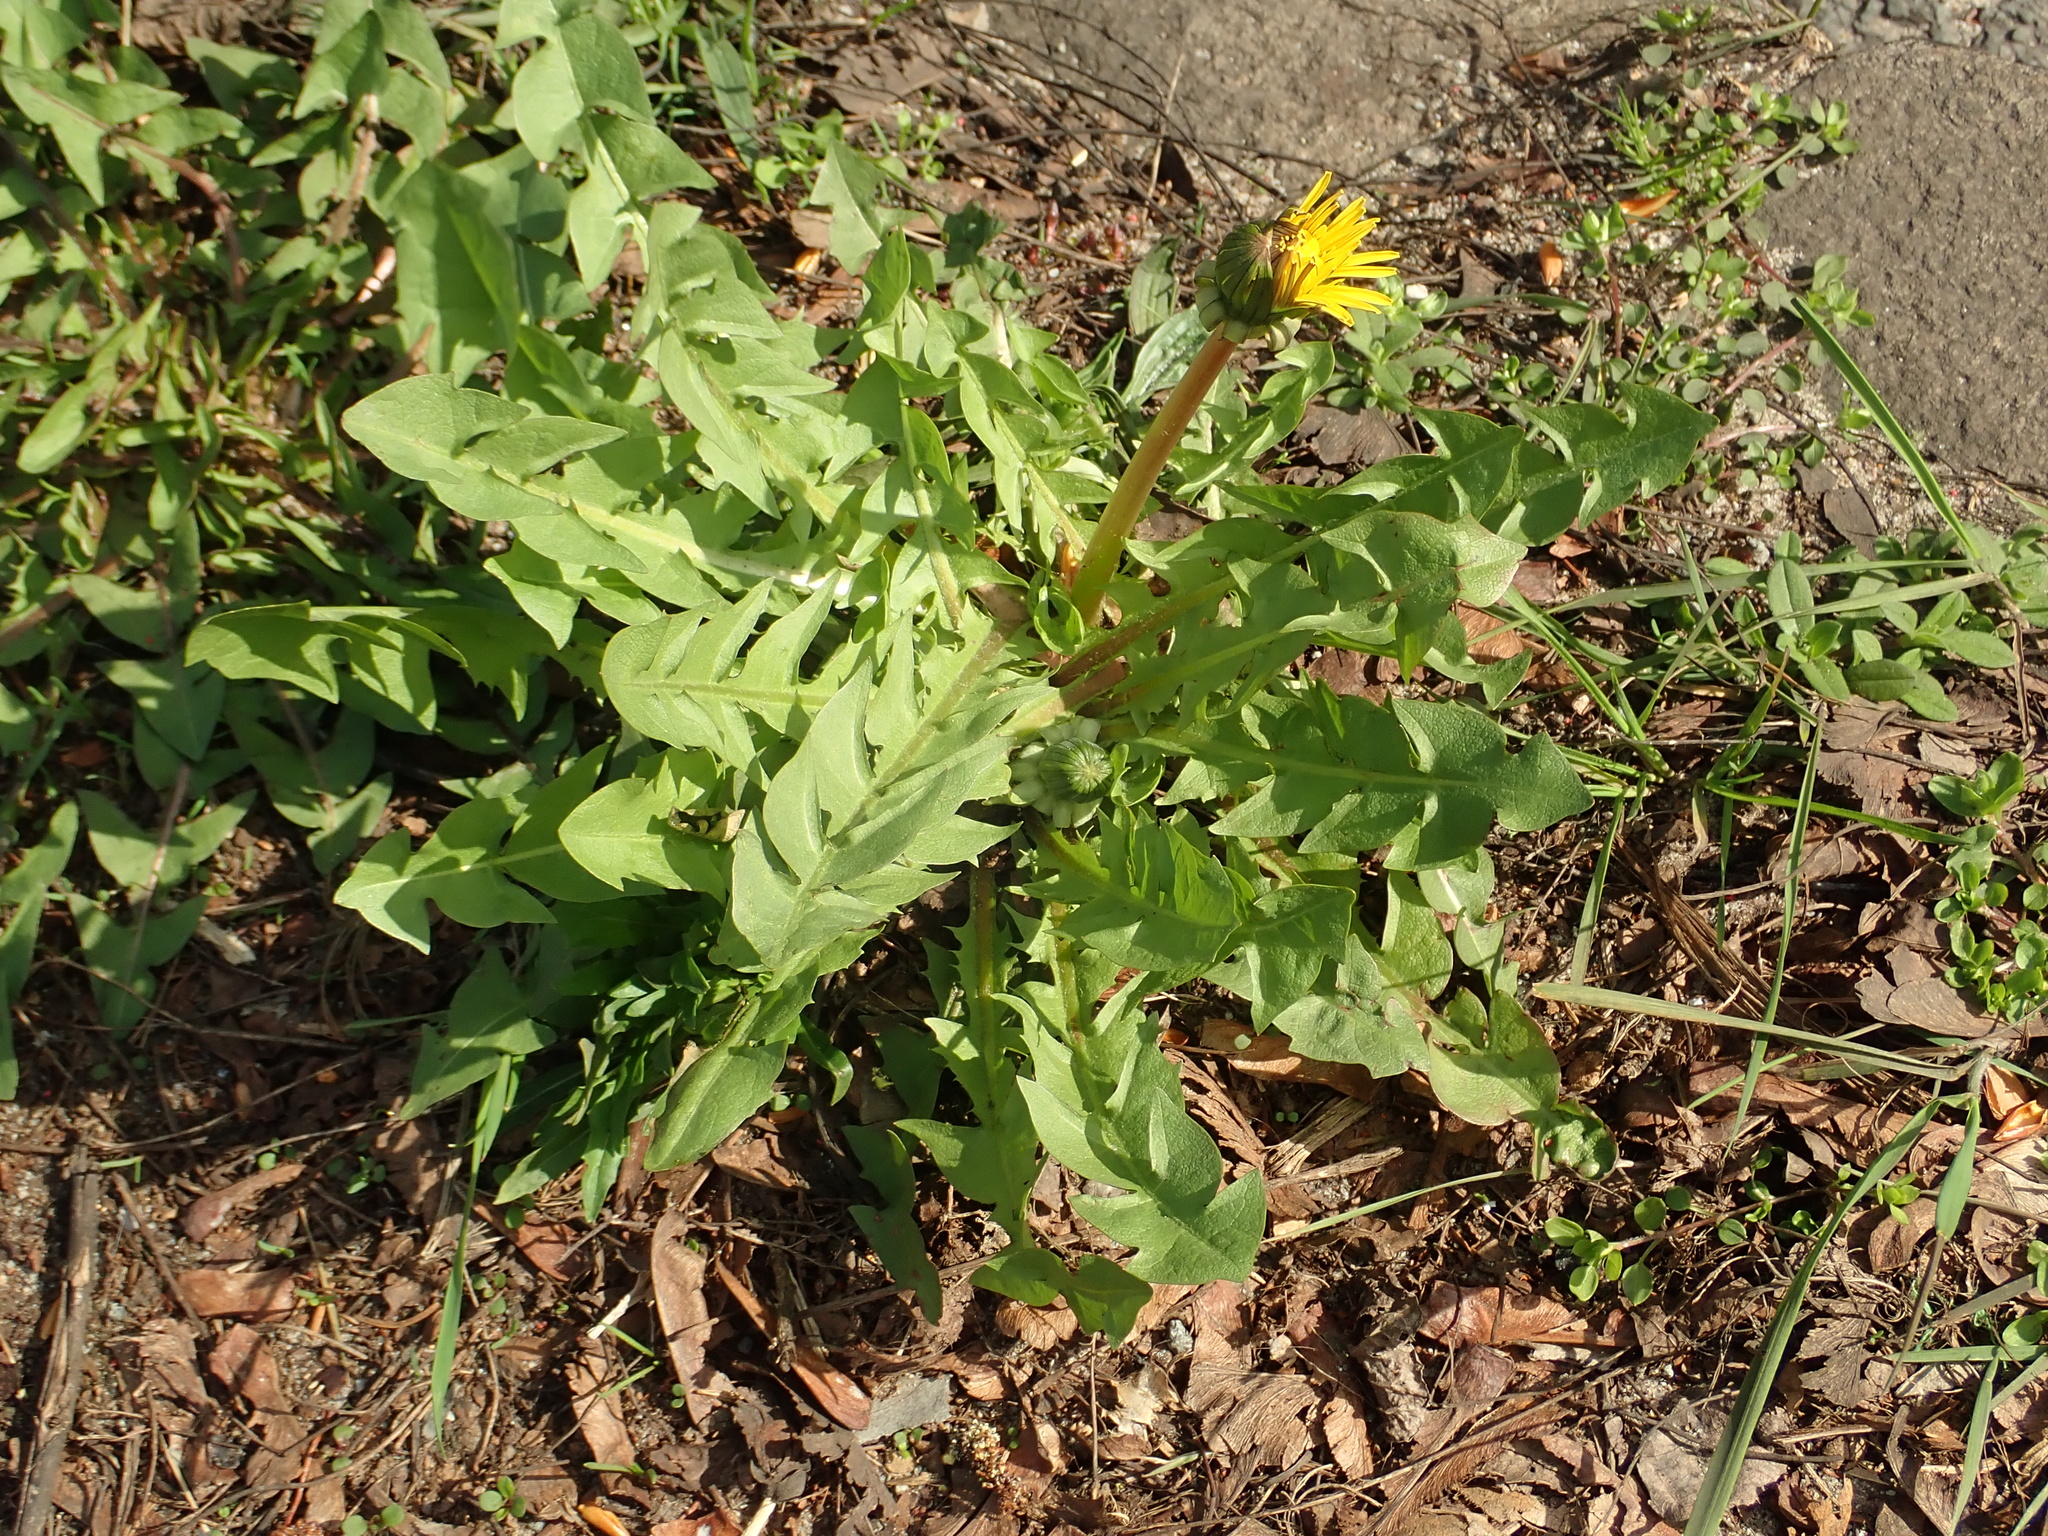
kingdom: Plantae
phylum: Tracheophyta
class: Magnoliopsida
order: Asterales
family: Asteraceae
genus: Taraxacum
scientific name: Taraxacum officinale
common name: Common dandelion
